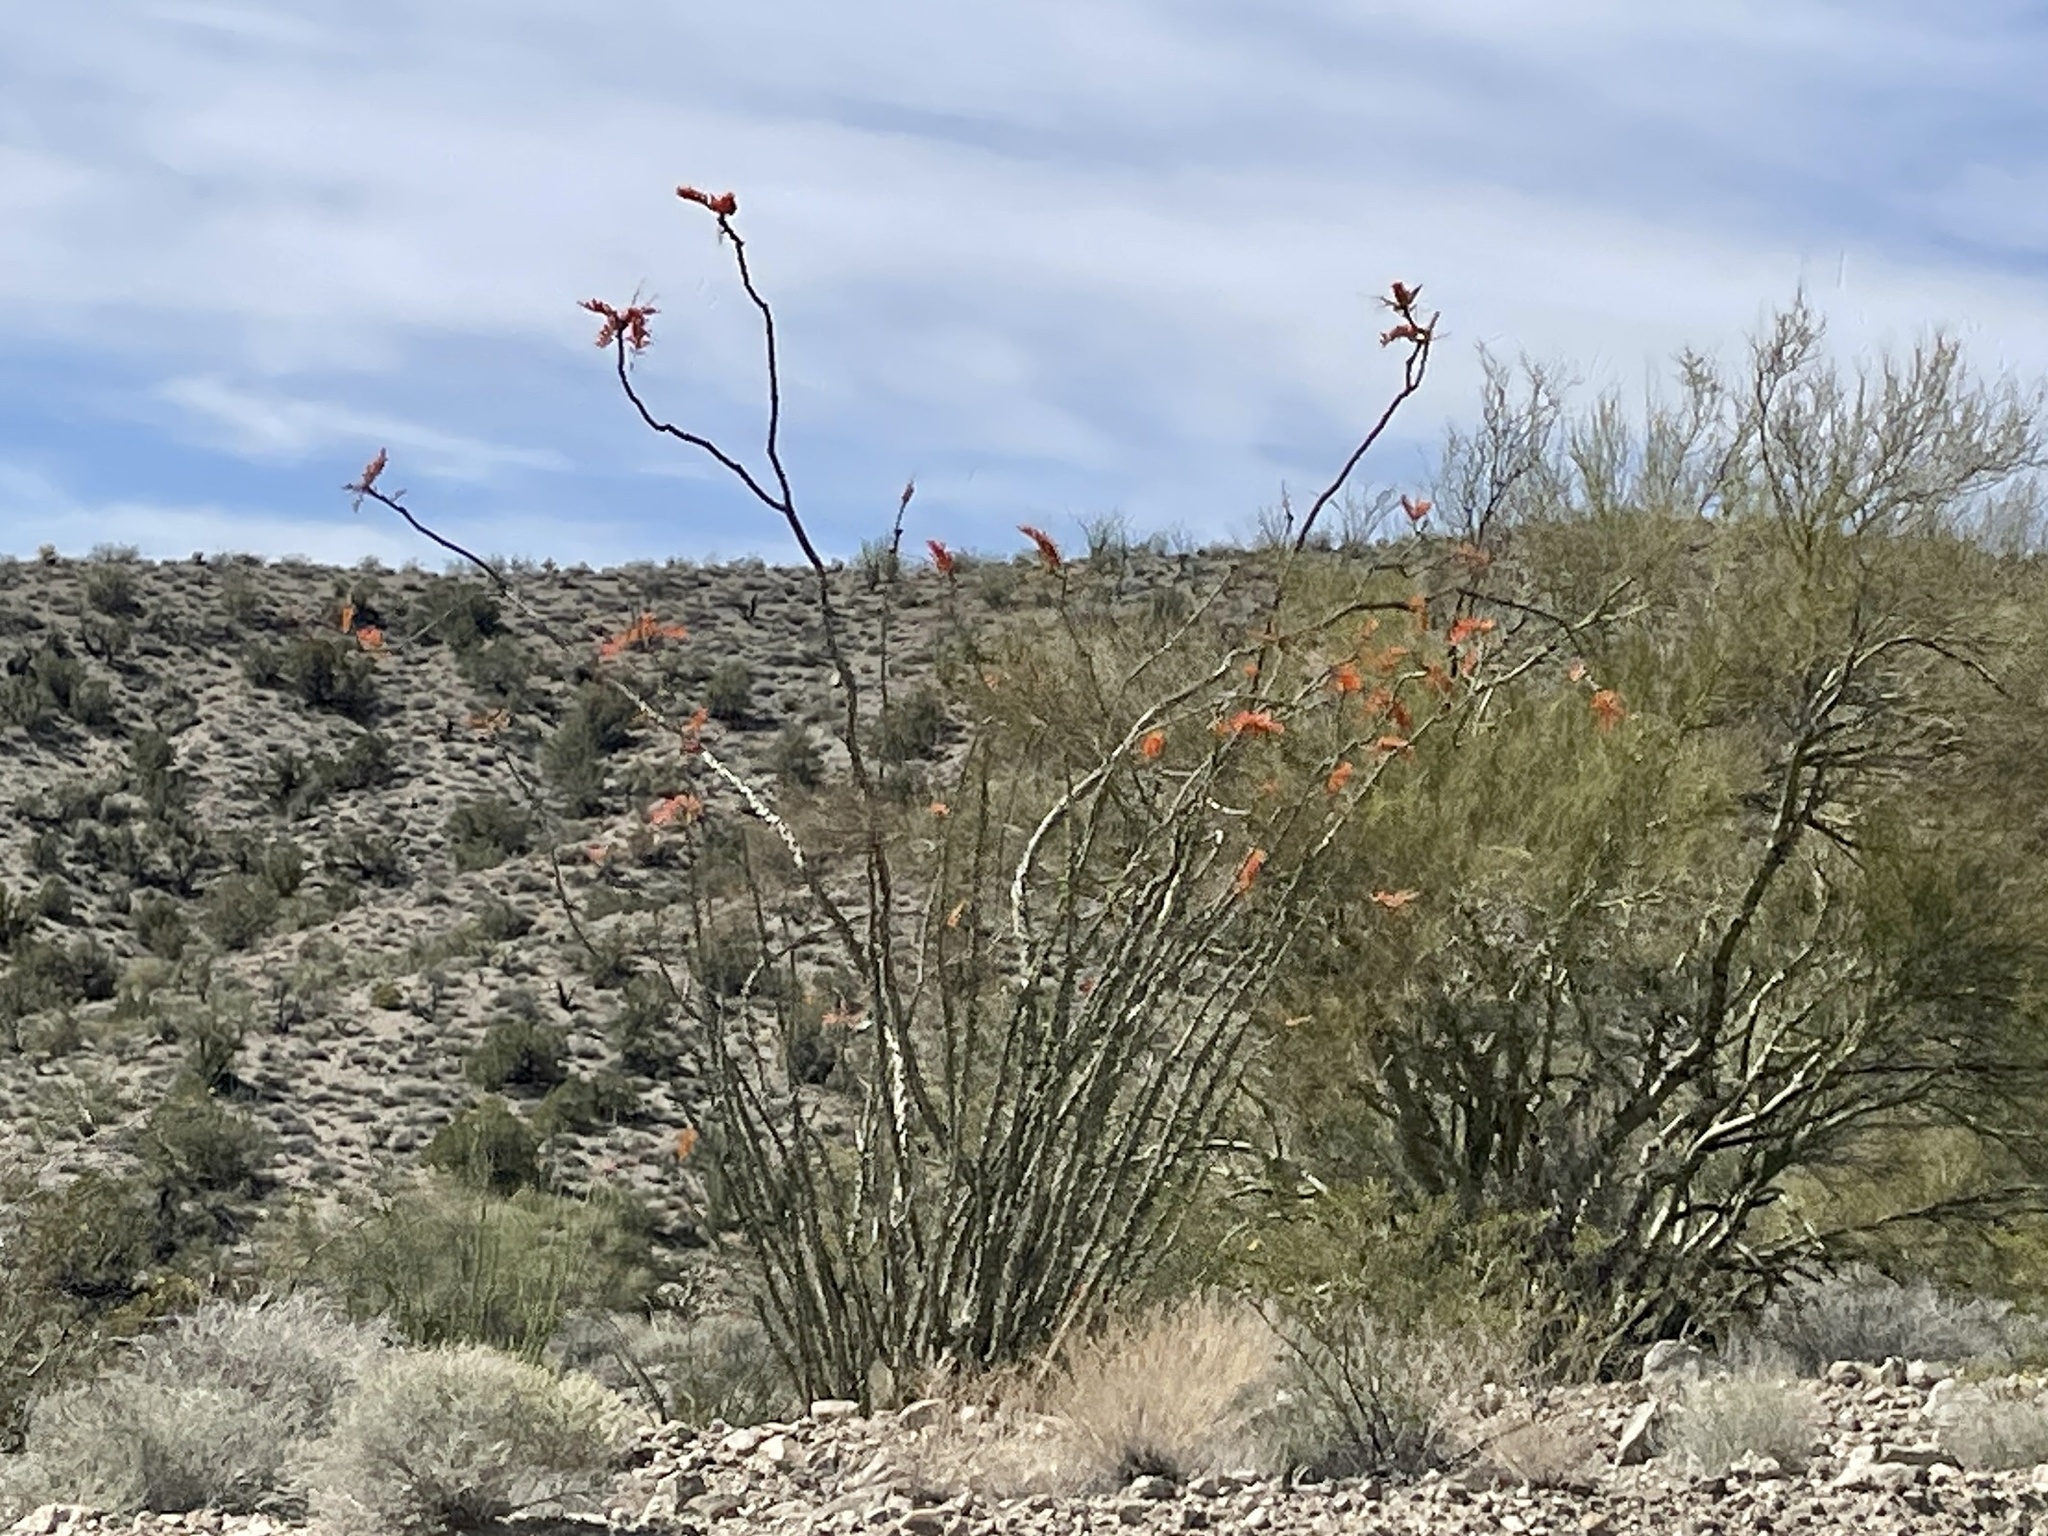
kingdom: Plantae
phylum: Tracheophyta
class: Magnoliopsida
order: Ericales
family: Fouquieriaceae
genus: Fouquieria
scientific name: Fouquieria splendens
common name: Vine-cactus
